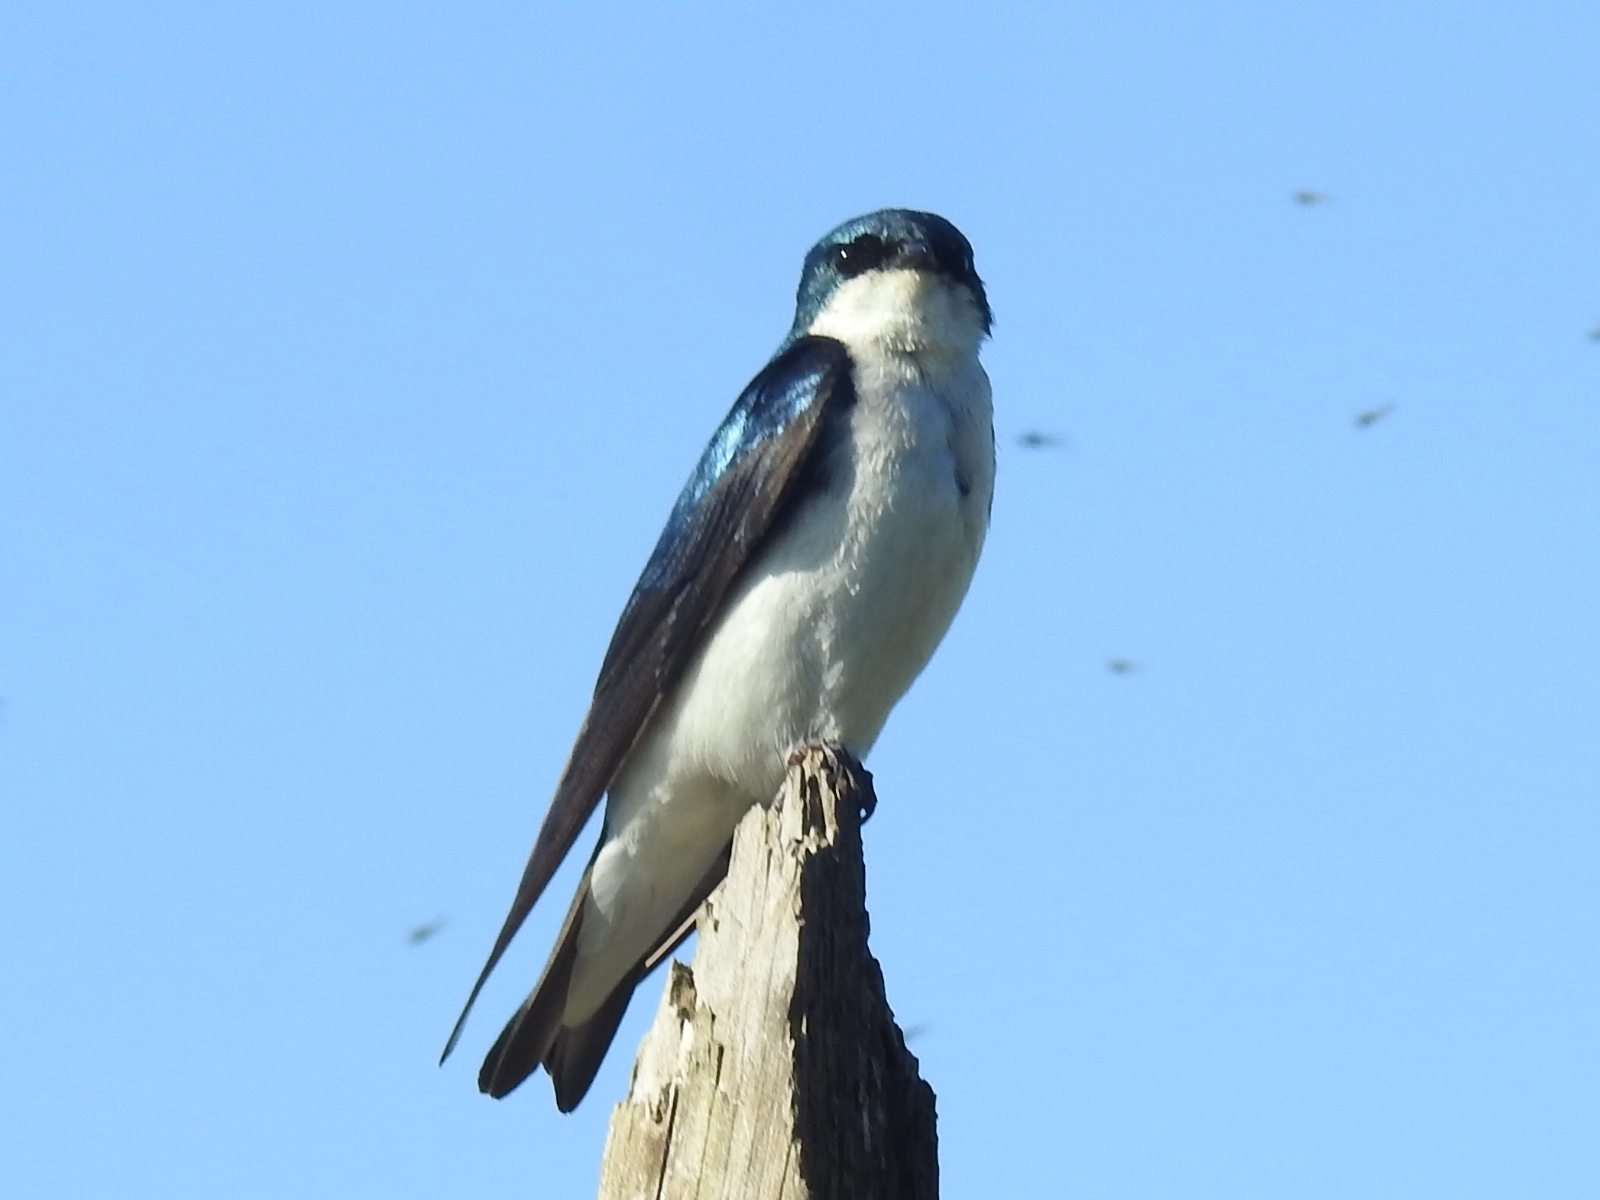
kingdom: Animalia
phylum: Chordata
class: Aves
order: Passeriformes
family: Hirundinidae
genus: Tachycineta
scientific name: Tachycineta bicolor
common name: Tree swallow
